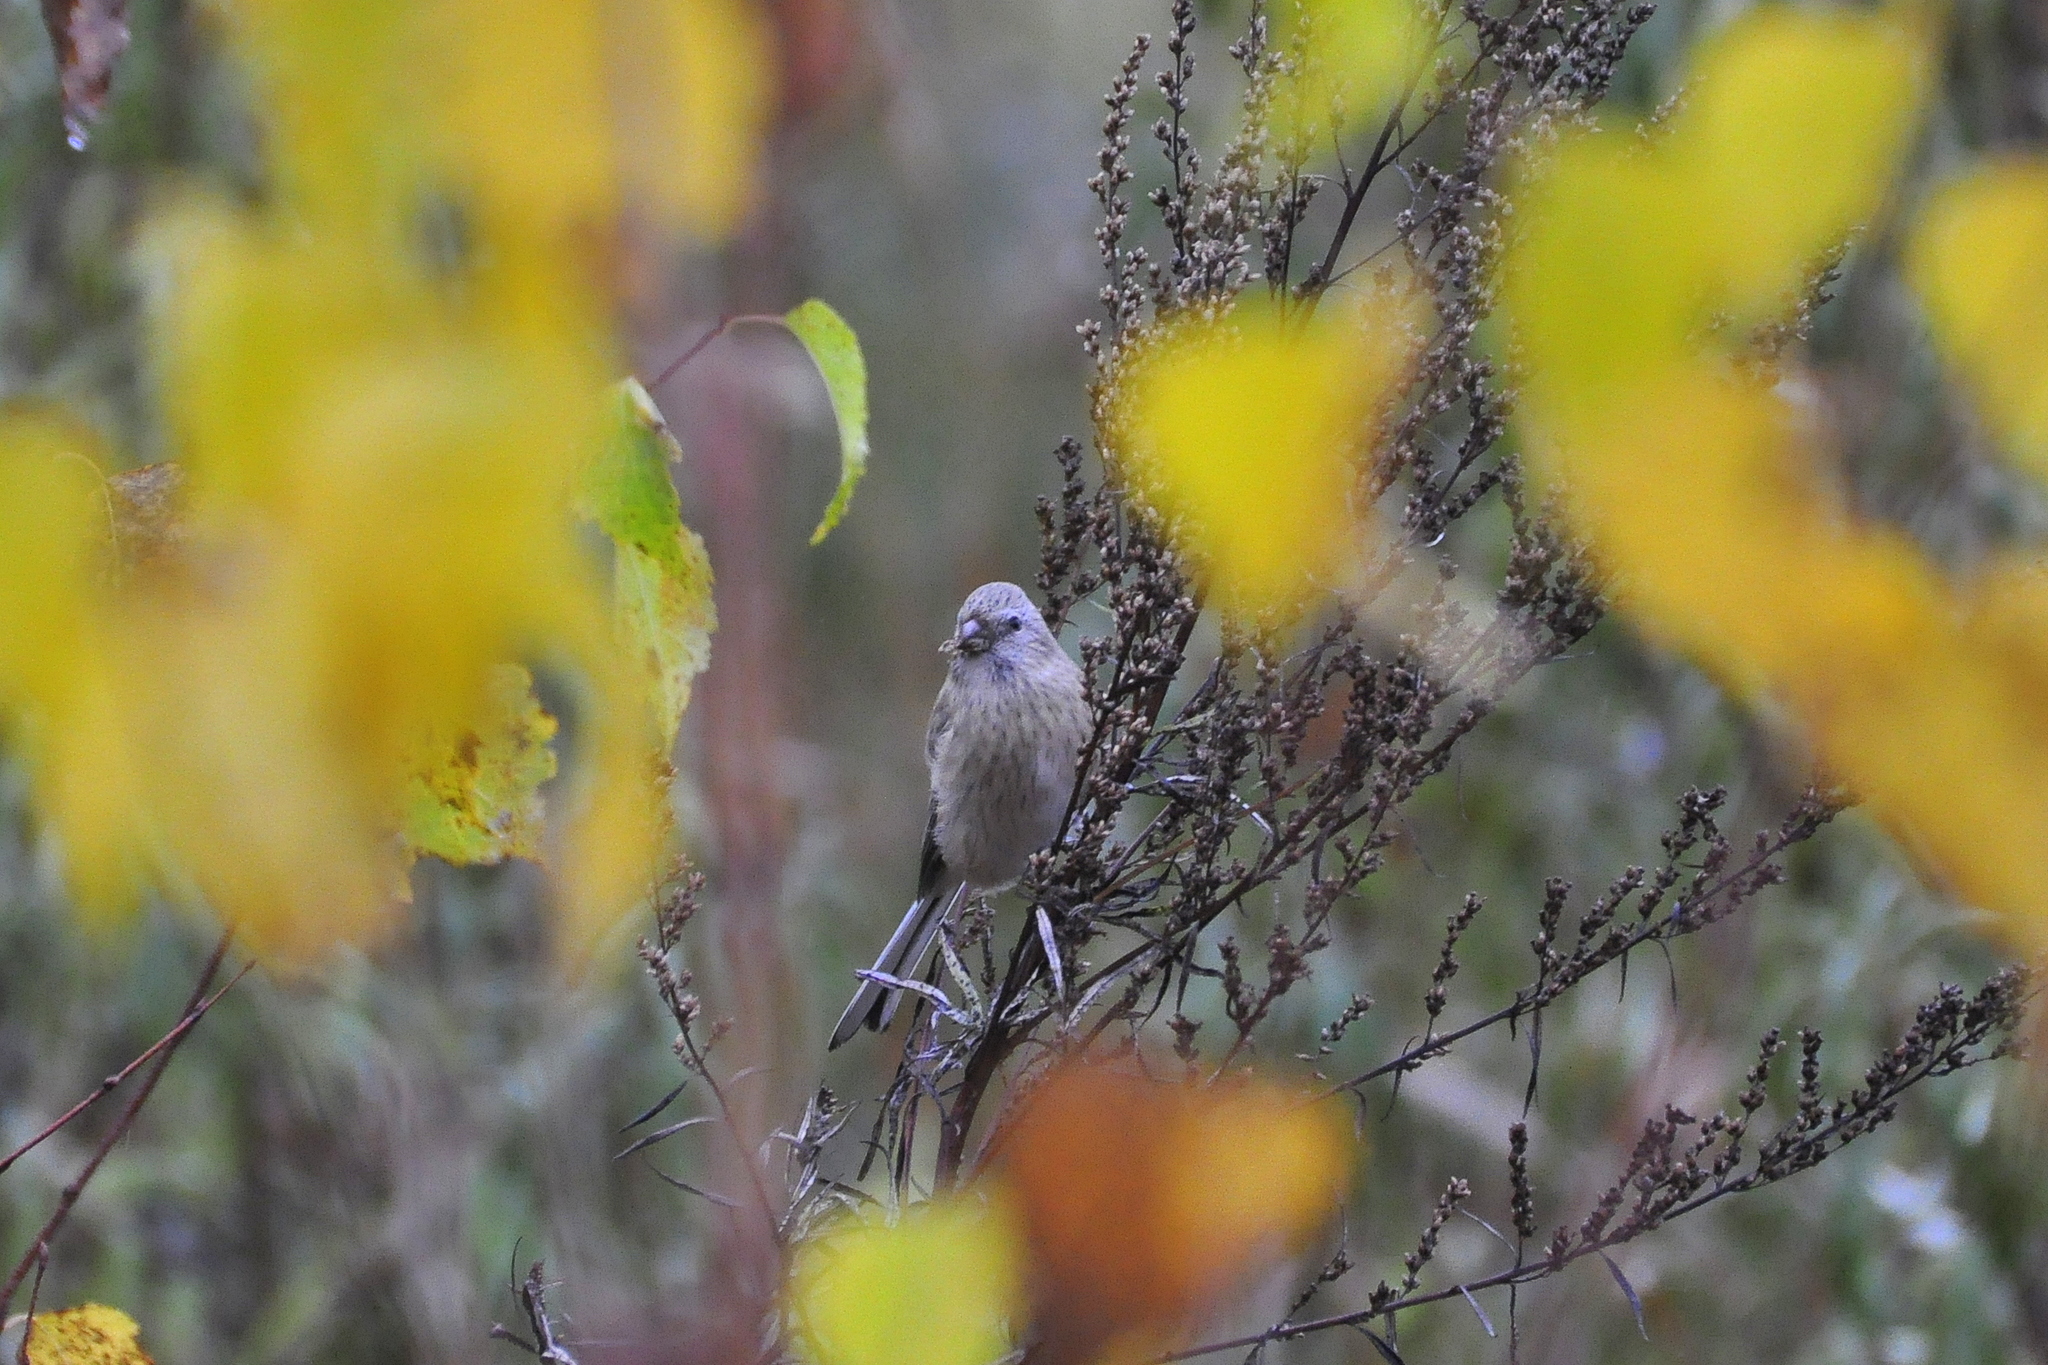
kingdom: Animalia
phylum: Chordata
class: Aves
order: Passeriformes
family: Fringillidae
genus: Carpodacus
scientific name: Carpodacus sibiricus
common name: Long-tailed rosefinch
